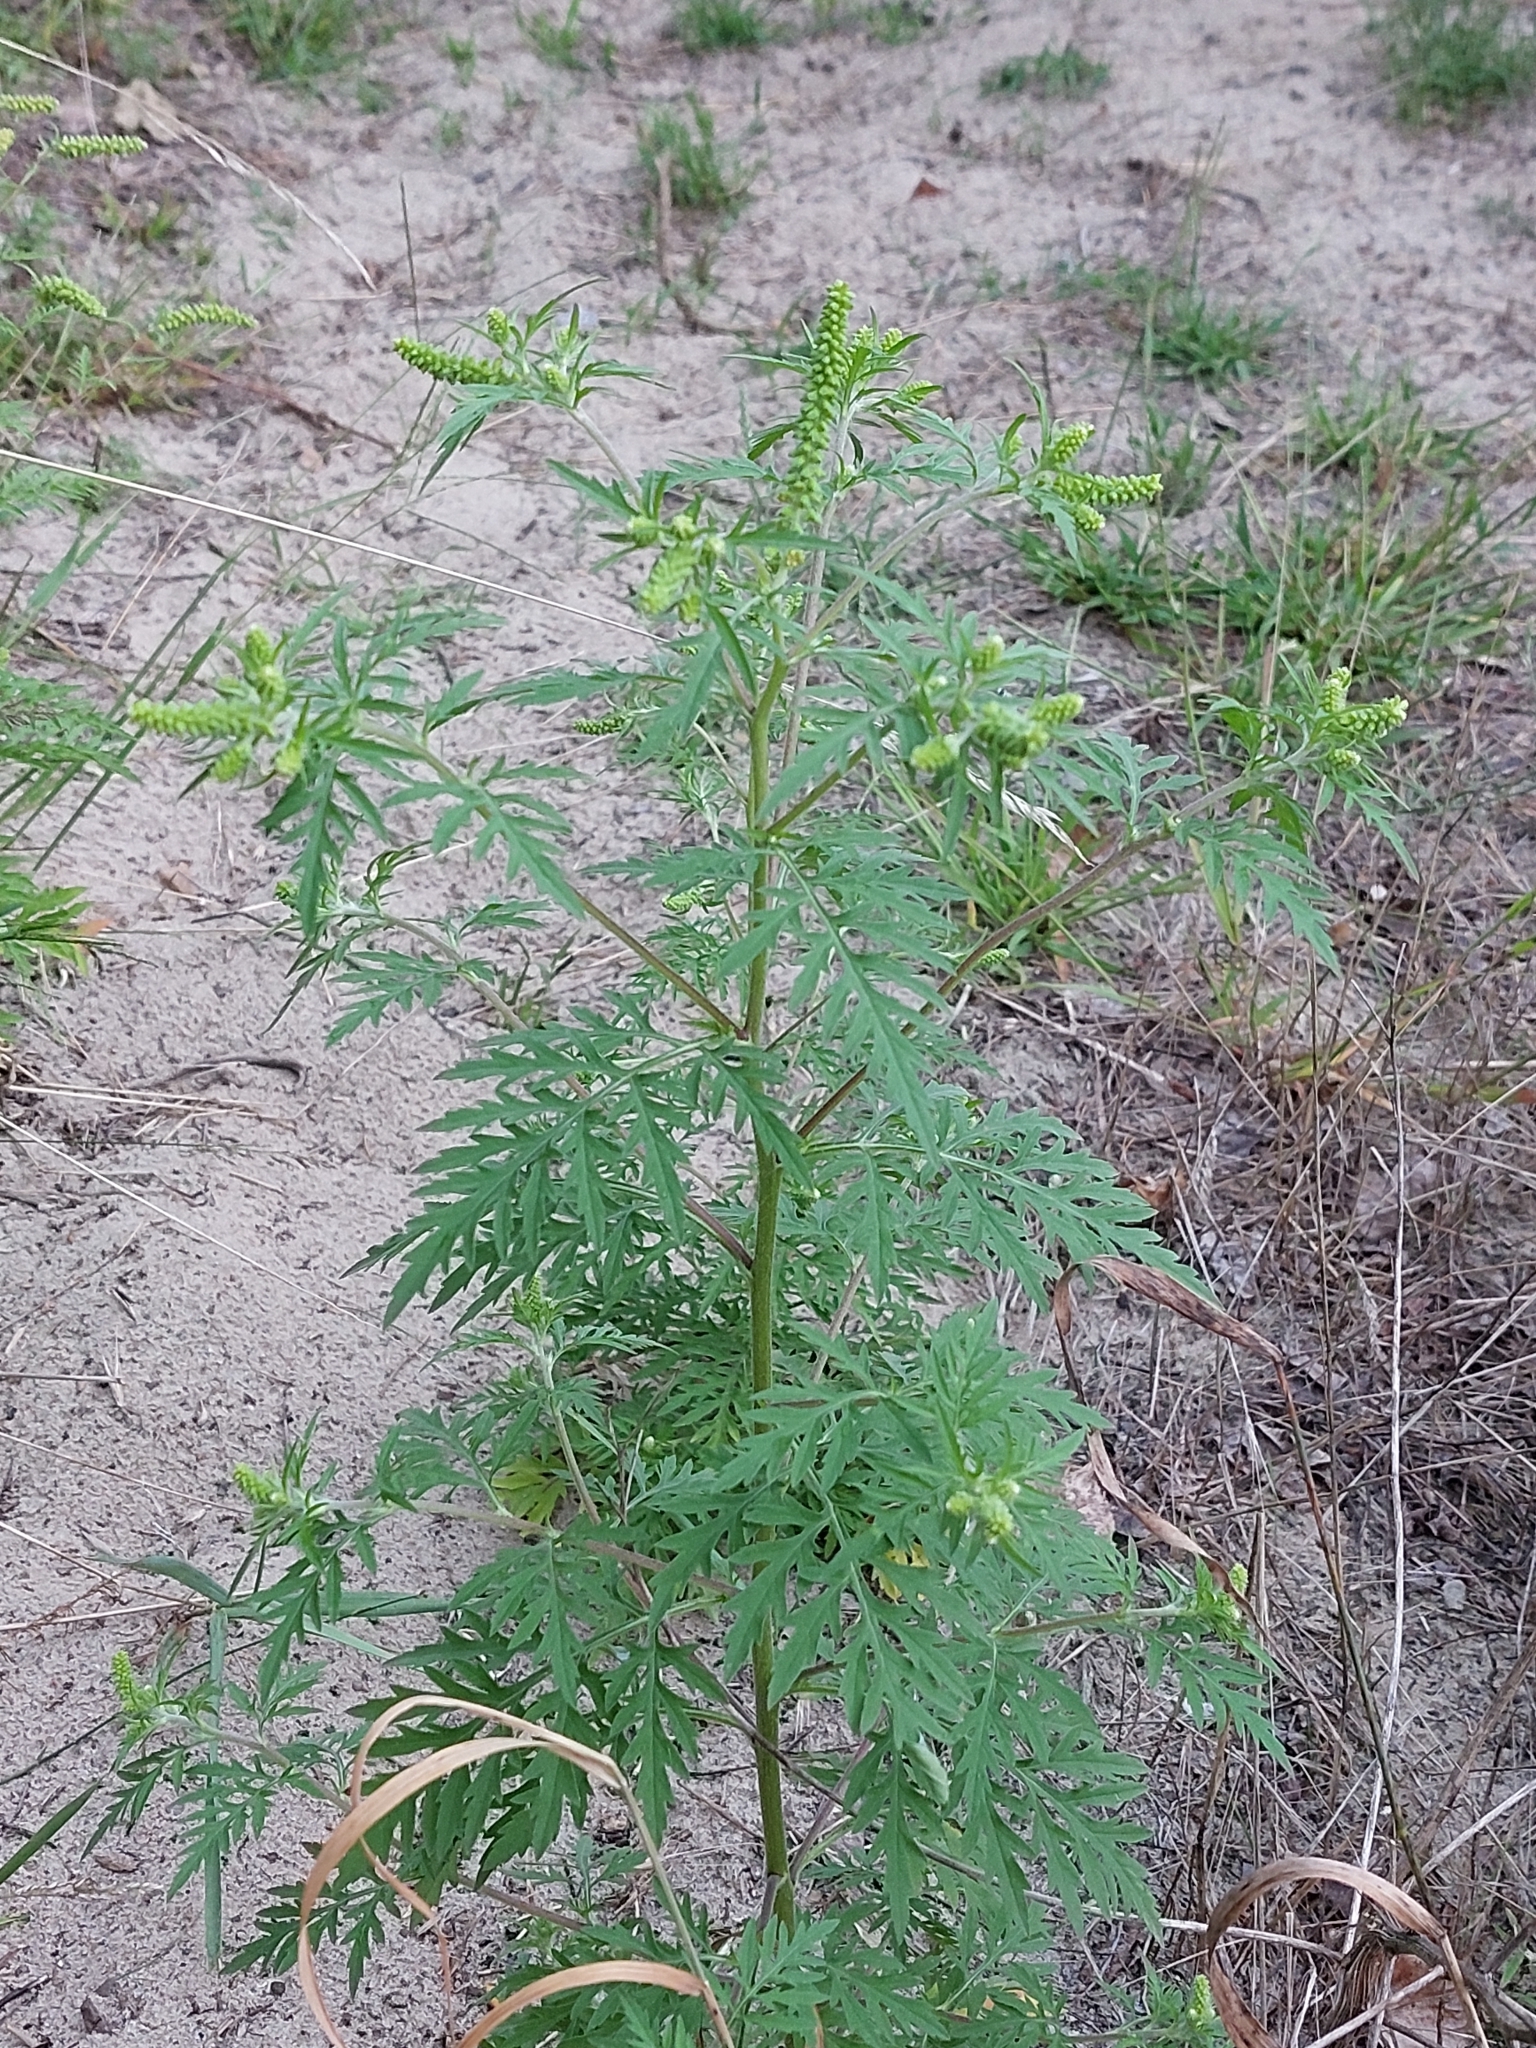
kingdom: Plantae
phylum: Tracheophyta
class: Magnoliopsida
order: Asterales
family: Asteraceae
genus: Ambrosia
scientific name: Ambrosia artemisiifolia
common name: Annual ragweed
